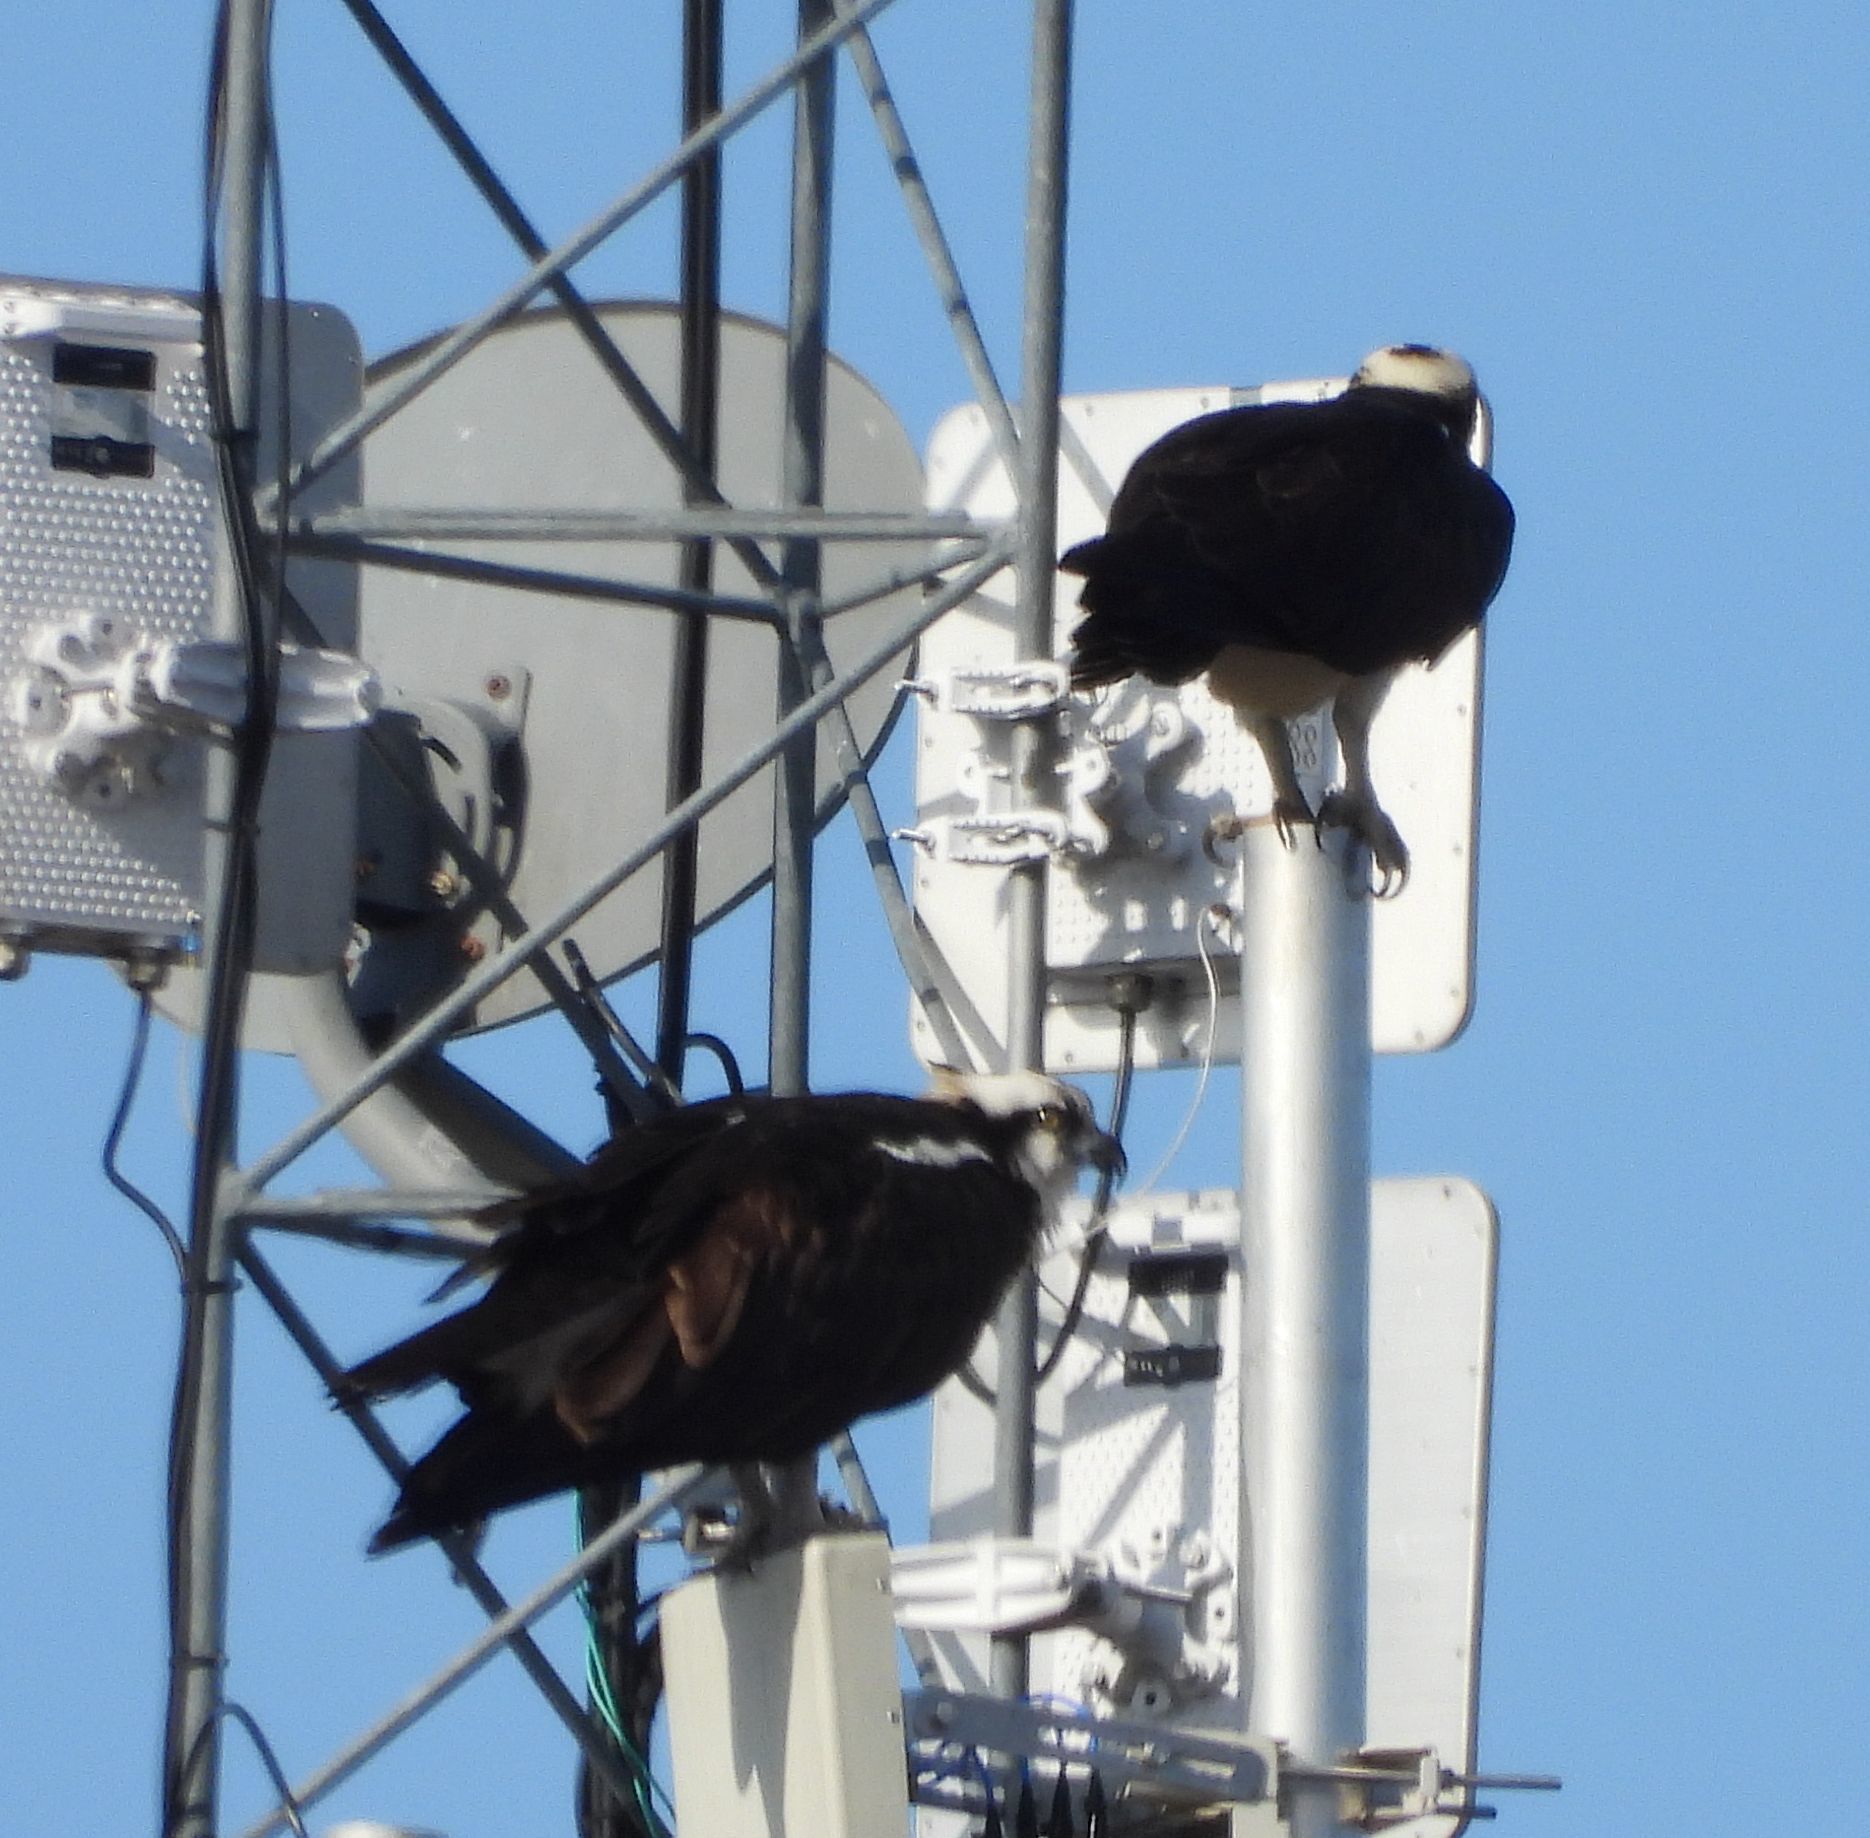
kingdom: Animalia
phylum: Chordata
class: Aves
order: Accipitriformes
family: Pandionidae
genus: Pandion
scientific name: Pandion haliaetus
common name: Osprey
